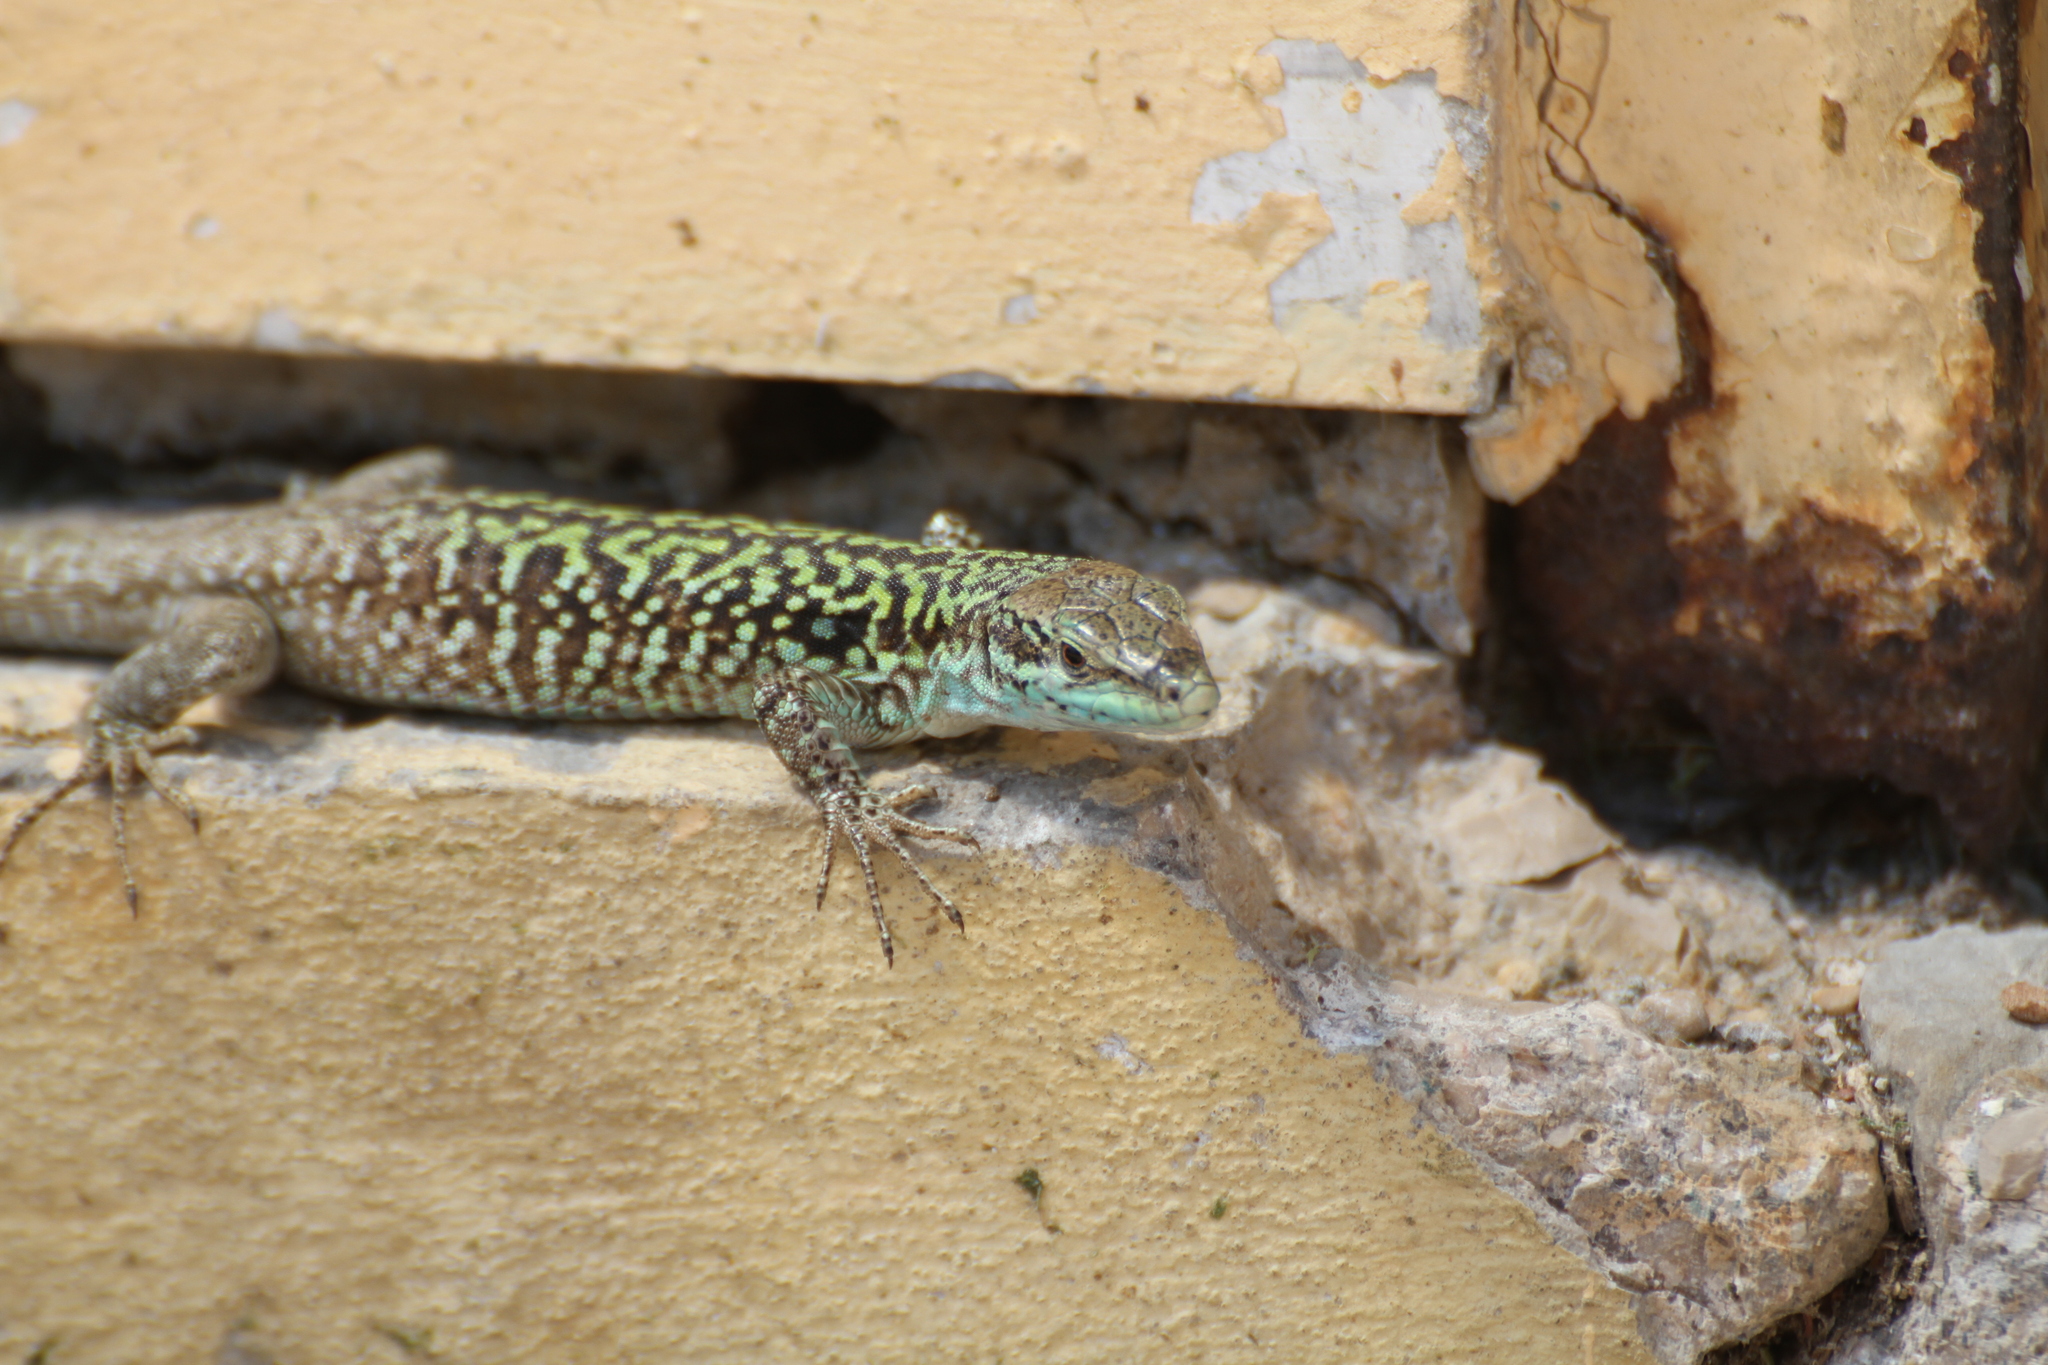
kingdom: Animalia
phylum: Chordata
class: Squamata
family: Lacertidae
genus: Podarcis
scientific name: Podarcis siculus
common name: Italian wall lizard
